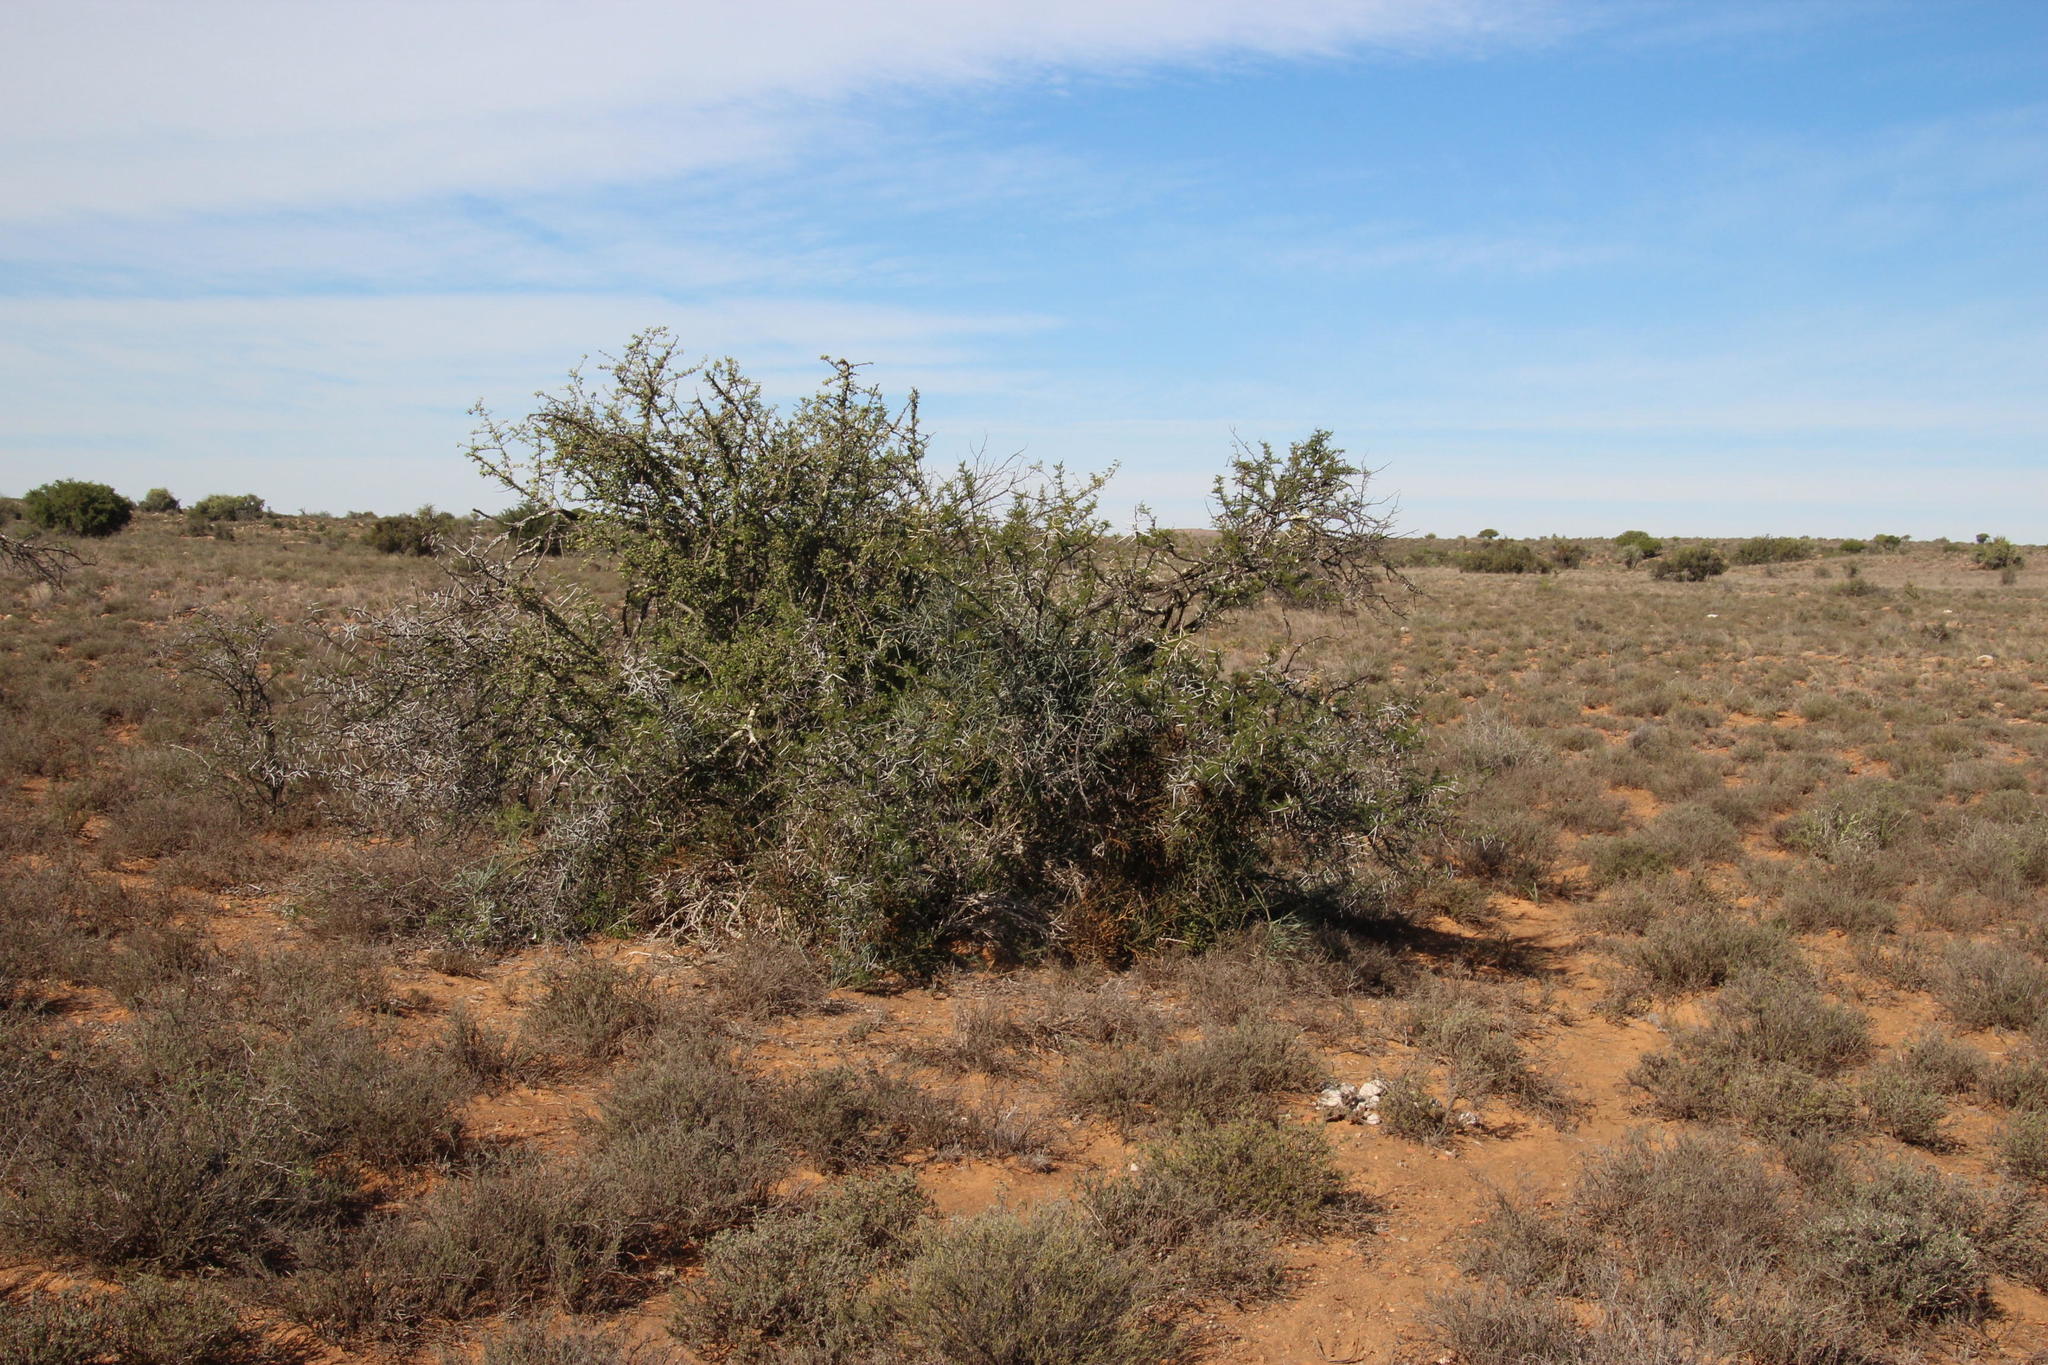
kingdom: Plantae
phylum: Tracheophyta
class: Magnoliopsida
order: Fabales
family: Fabaceae
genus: Vachellia
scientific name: Vachellia karroo
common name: Sweet thorn
